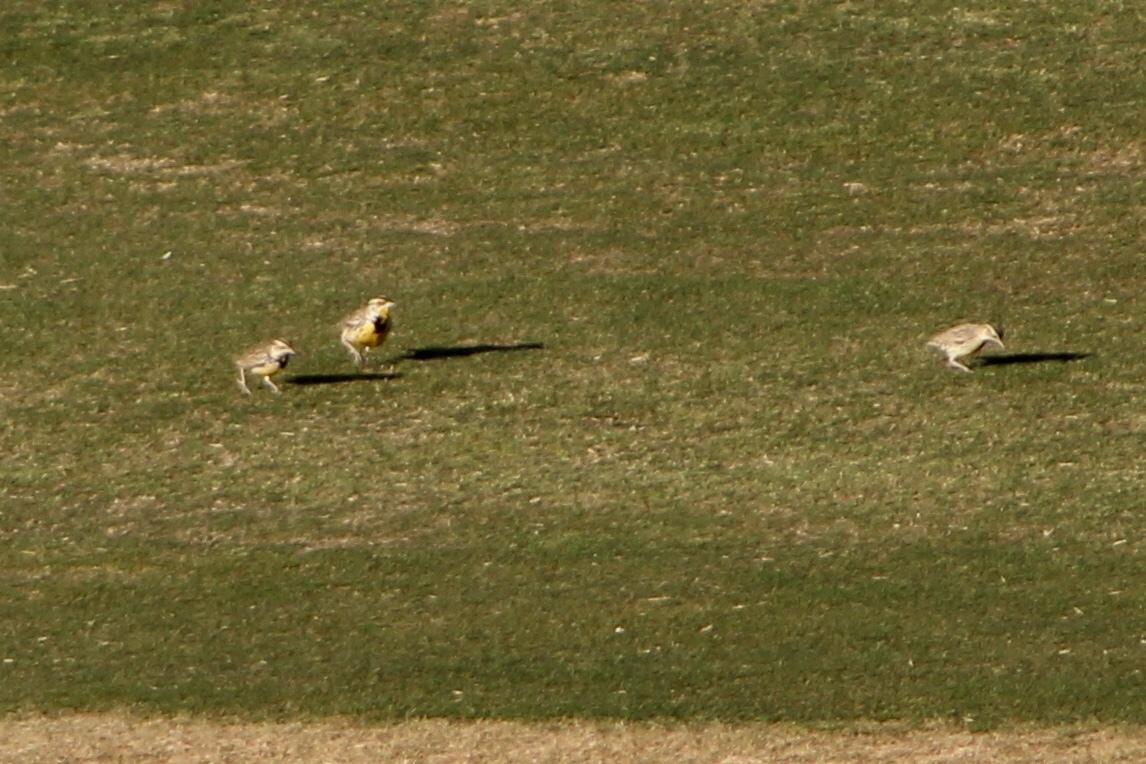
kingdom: Animalia
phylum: Chordata
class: Aves
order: Passeriformes
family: Icteridae
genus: Sturnella
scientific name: Sturnella neglecta
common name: Western meadowlark
